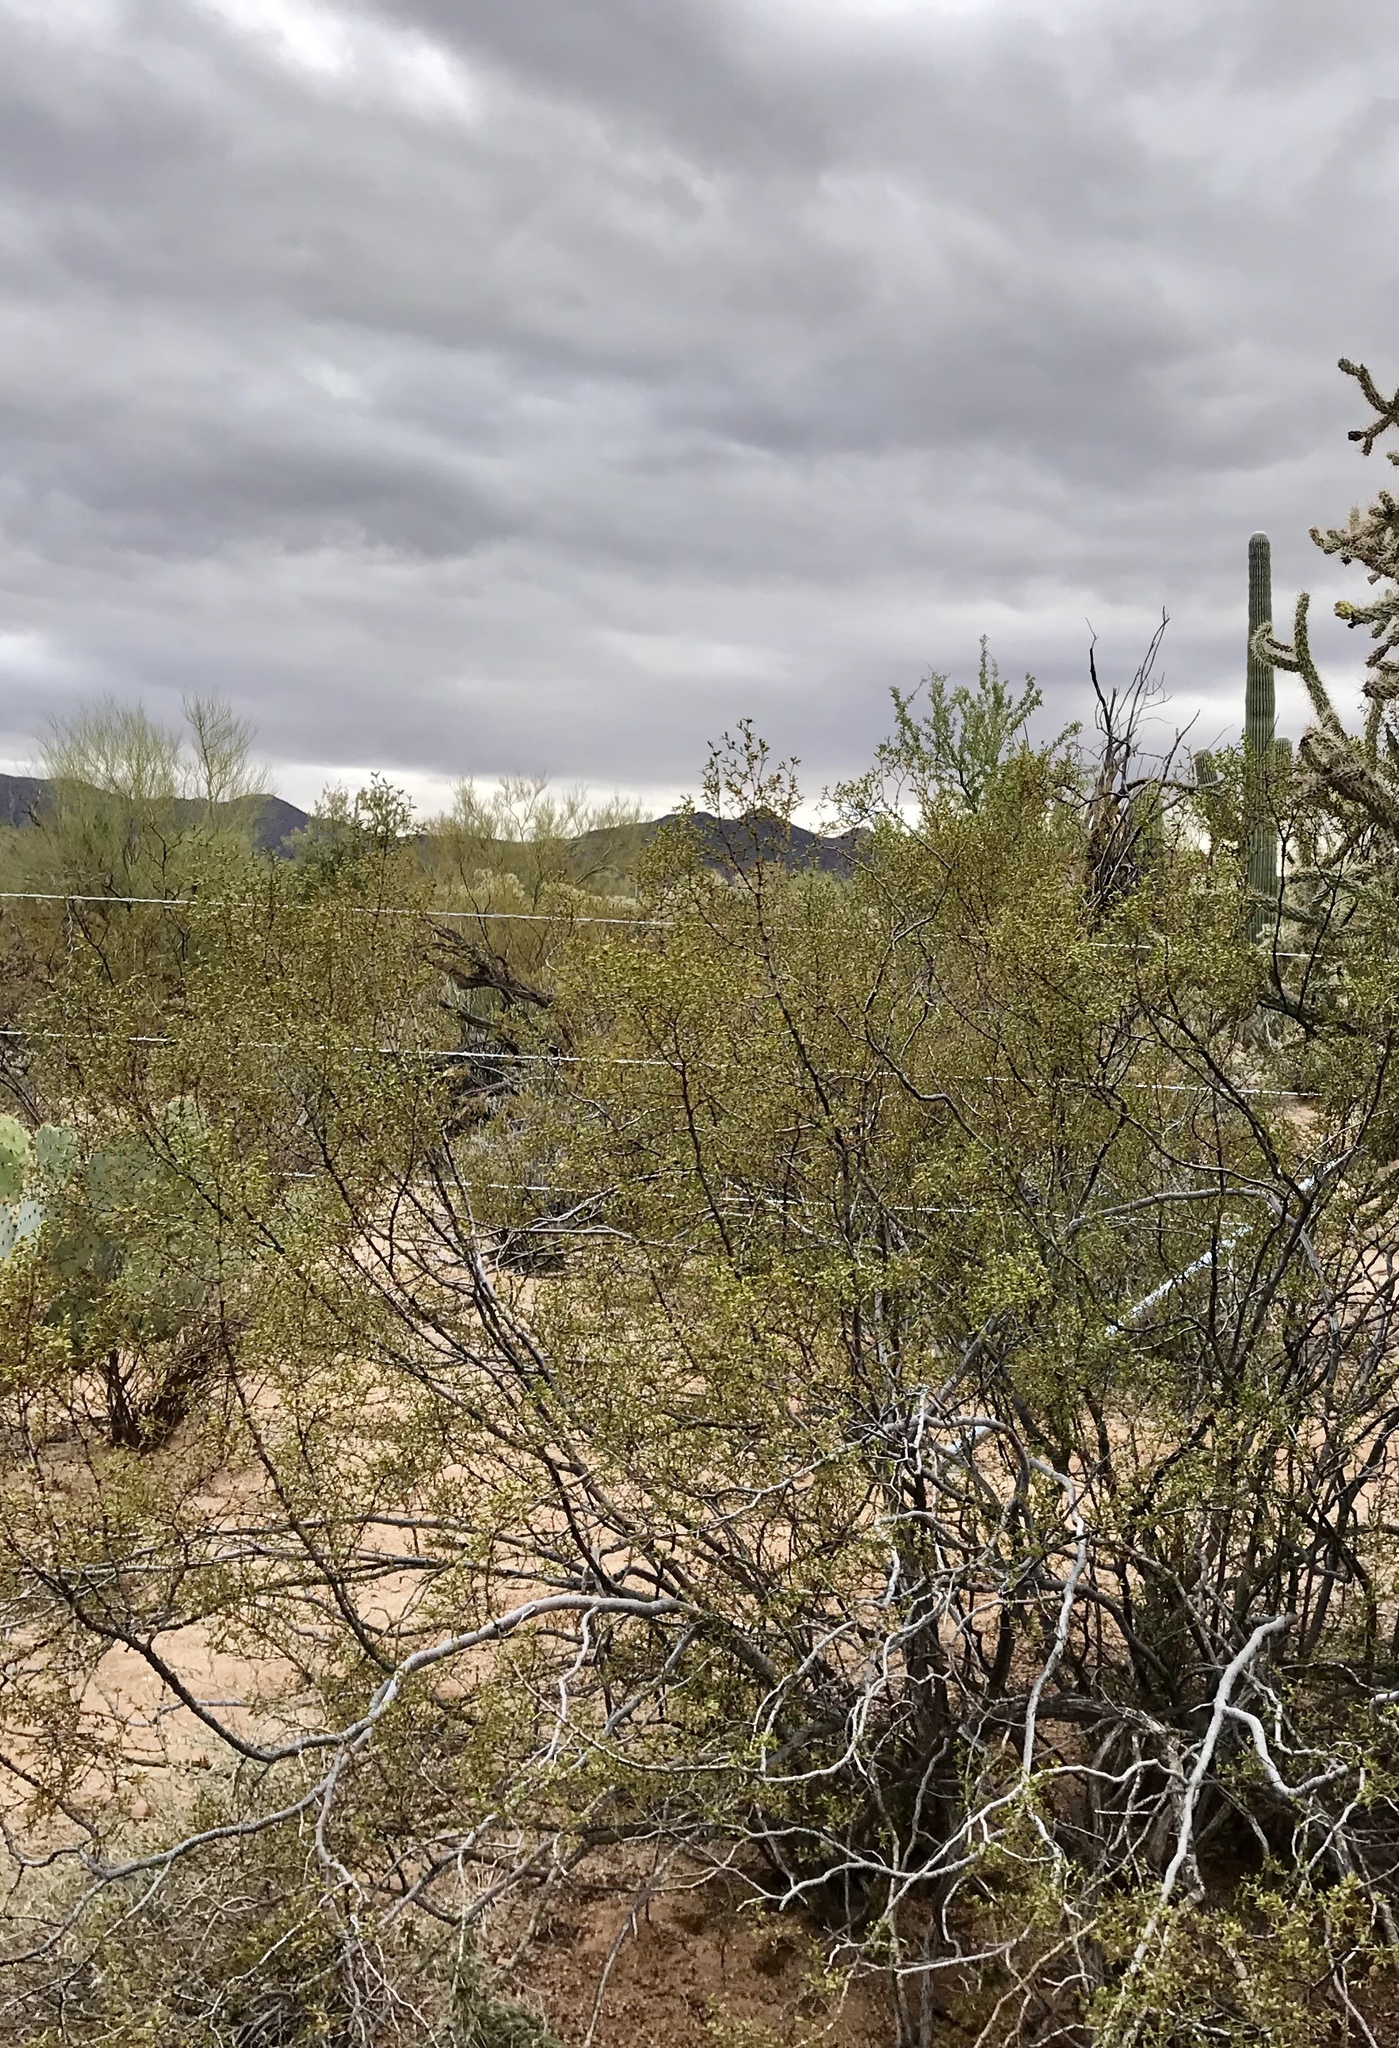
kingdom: Plantae
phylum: Tracheophyta
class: Magnoliopsida
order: Zygophyllales
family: Zygophyllaceae
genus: Larrea
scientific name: Larrea tridentata
